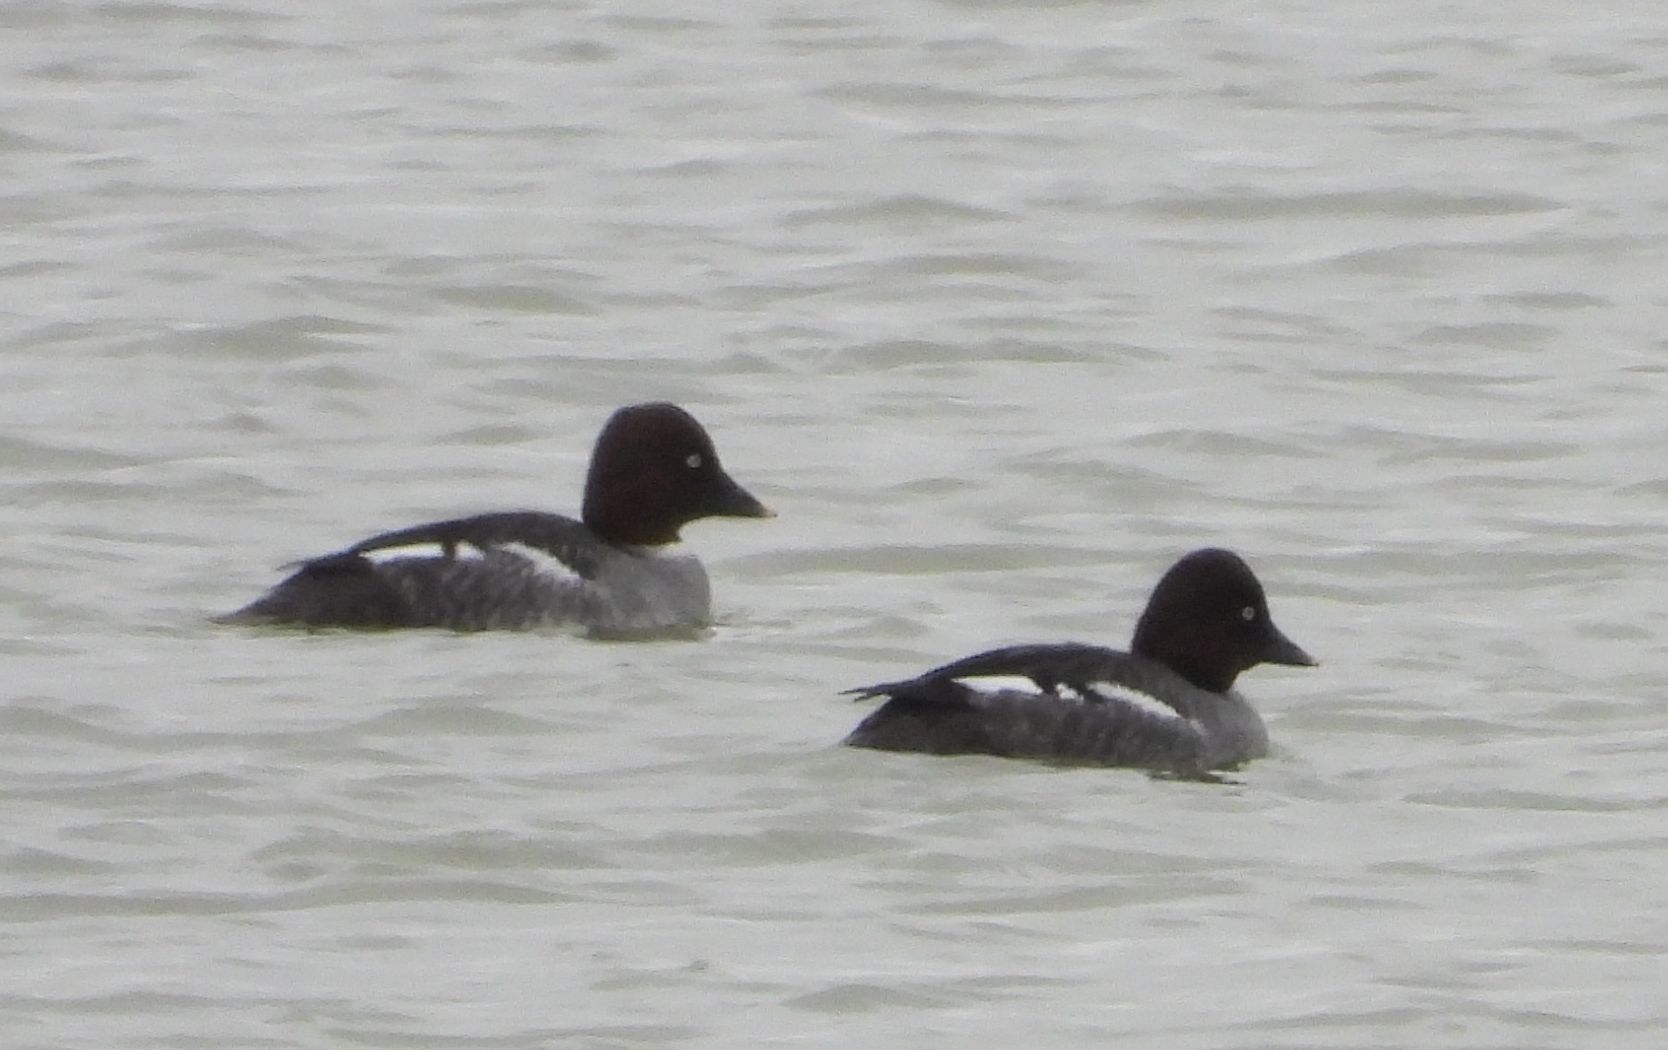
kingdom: Animalia
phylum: Chordata
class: Aves
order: Anseriformes
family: Anatidae
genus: Bucephala
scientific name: Bucephala clangula
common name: Common goldeneye
